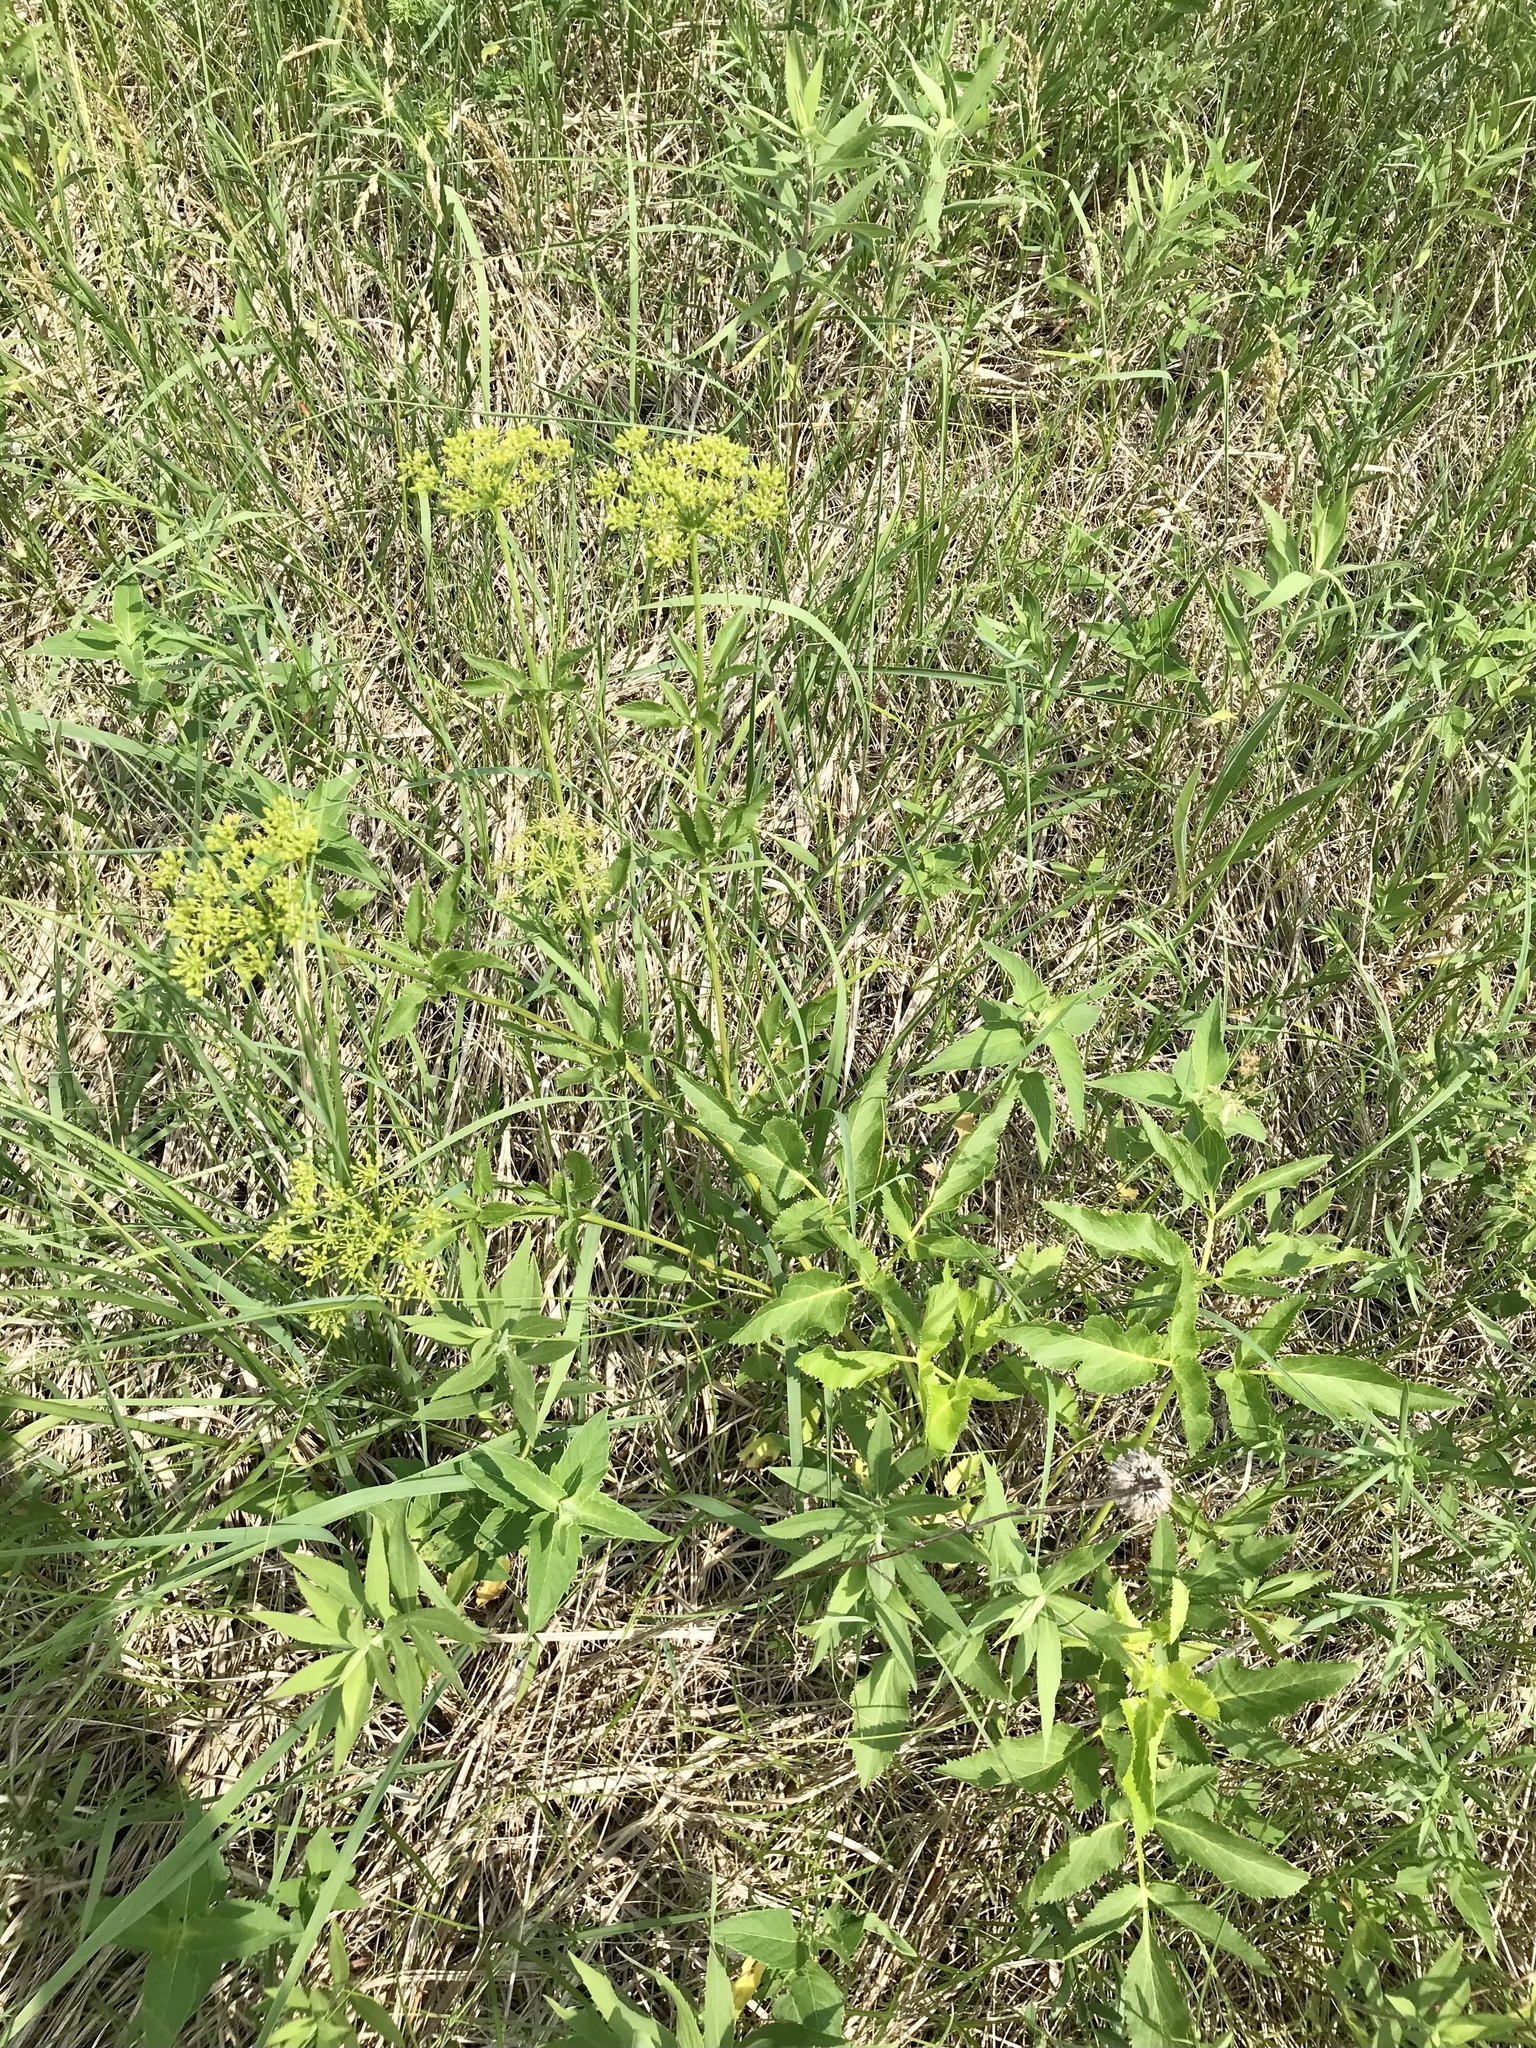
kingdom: Plantae
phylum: Tracheophyta
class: Magnoliopsida
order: Apiales
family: Apiaceae
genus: Zizia
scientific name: Zizia aurea
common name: Golden alexanders
